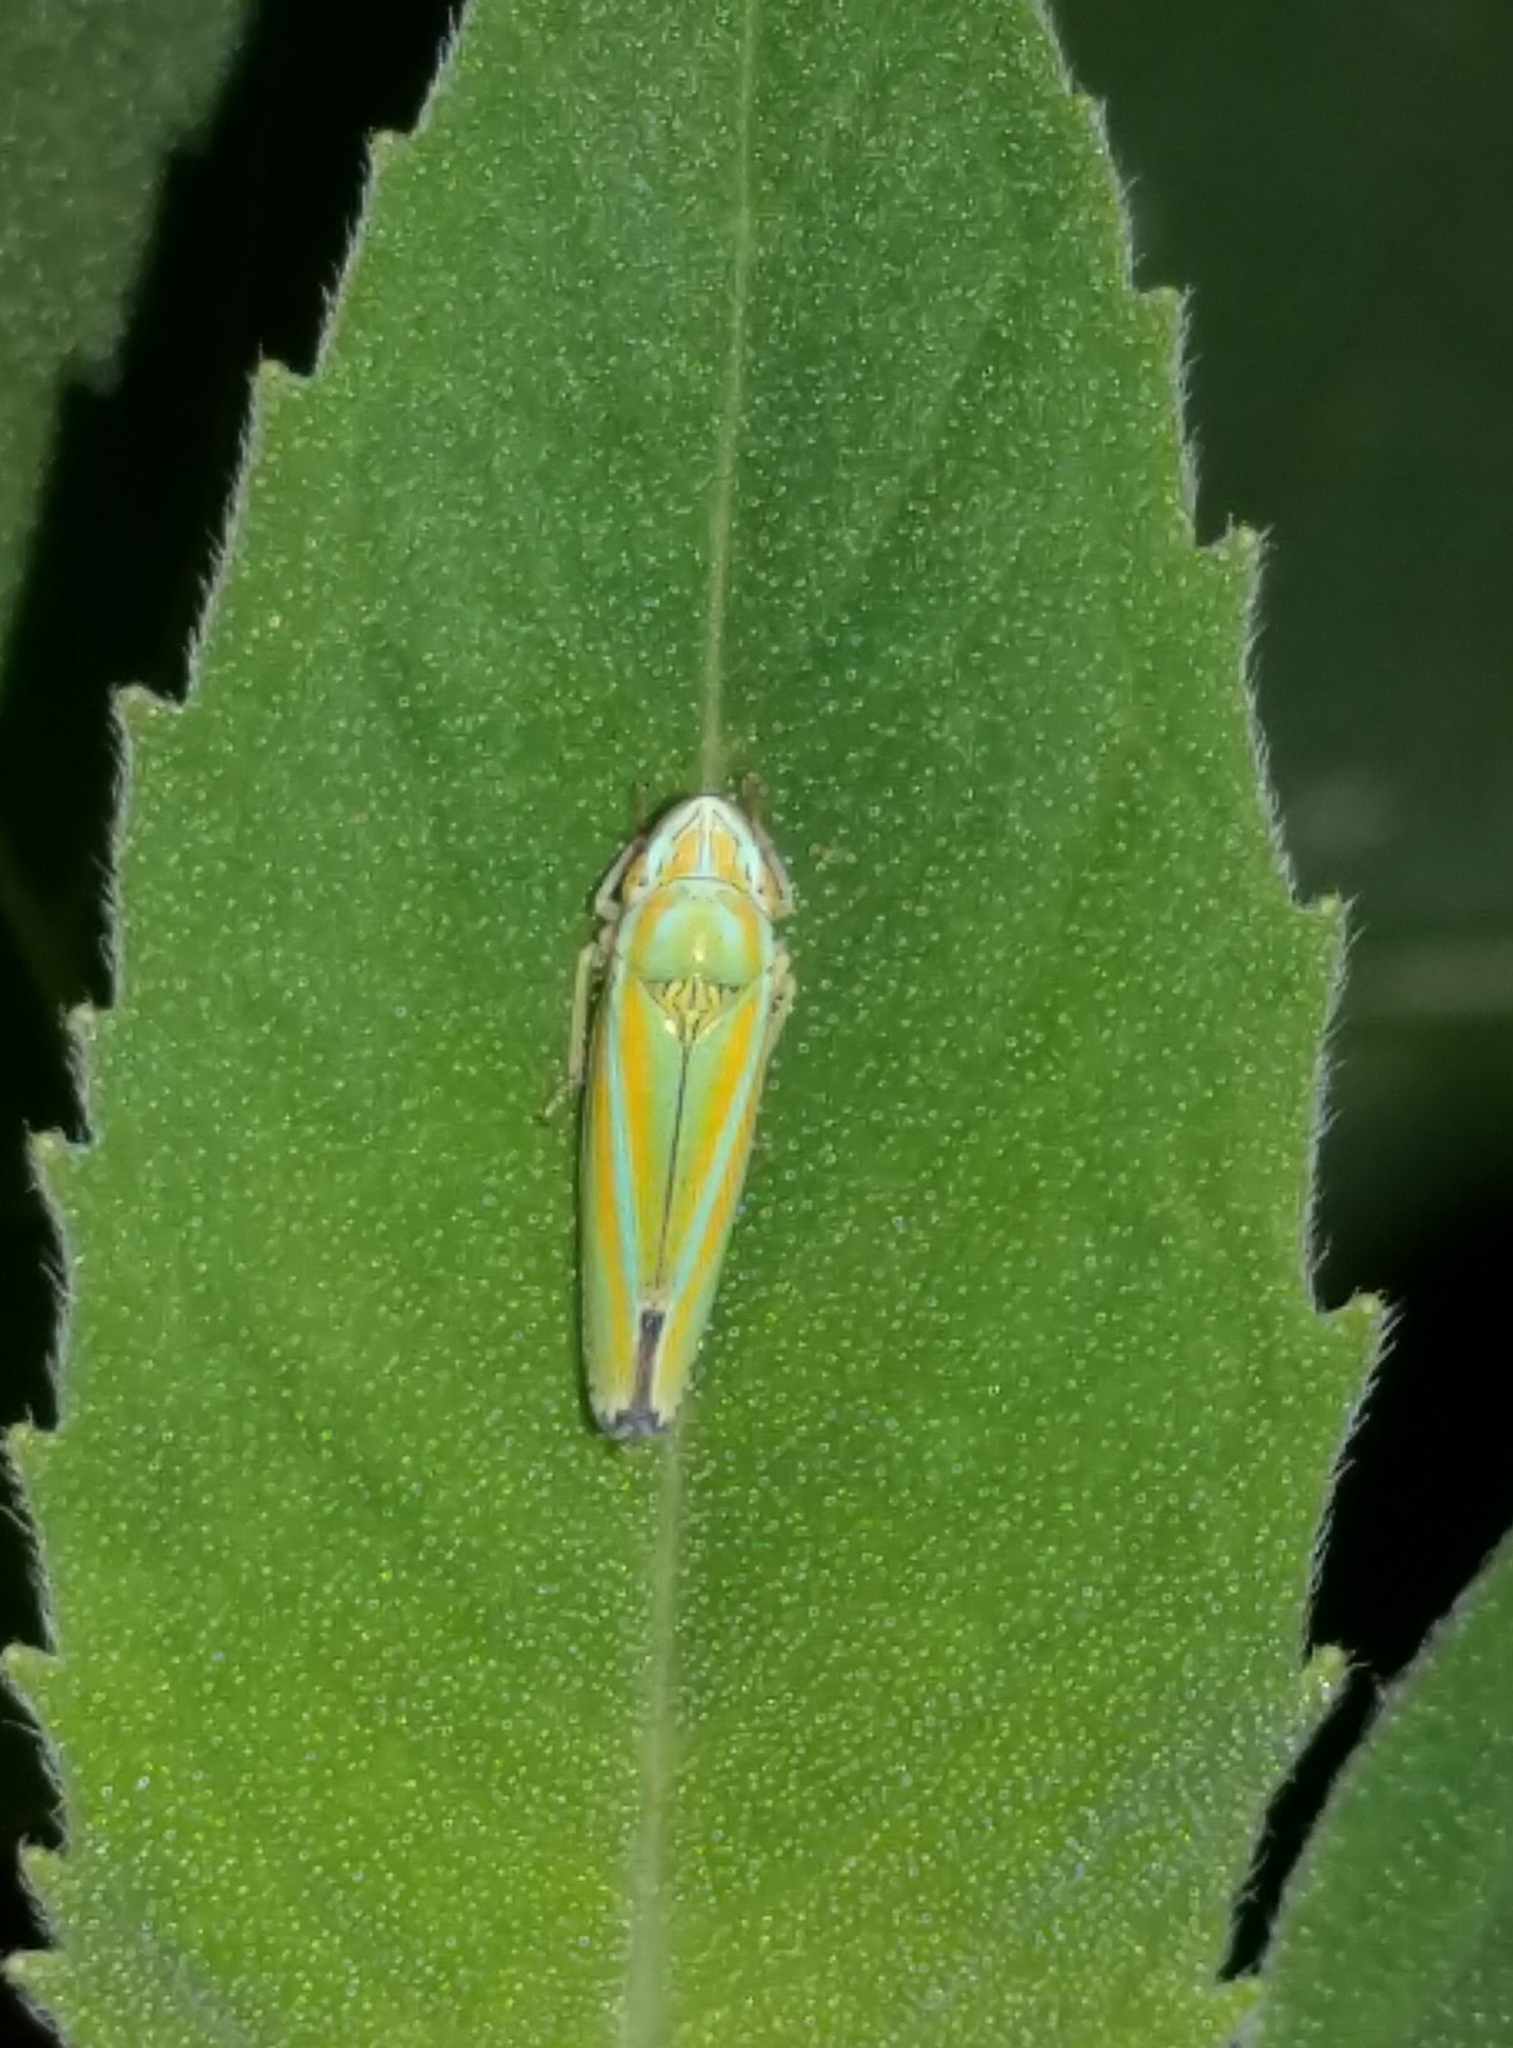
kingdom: Animalia
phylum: Arthropoda
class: Insecta
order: Hemiptera
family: Cicadellidae
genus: Graphocephala
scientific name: Graphocephala versuta
